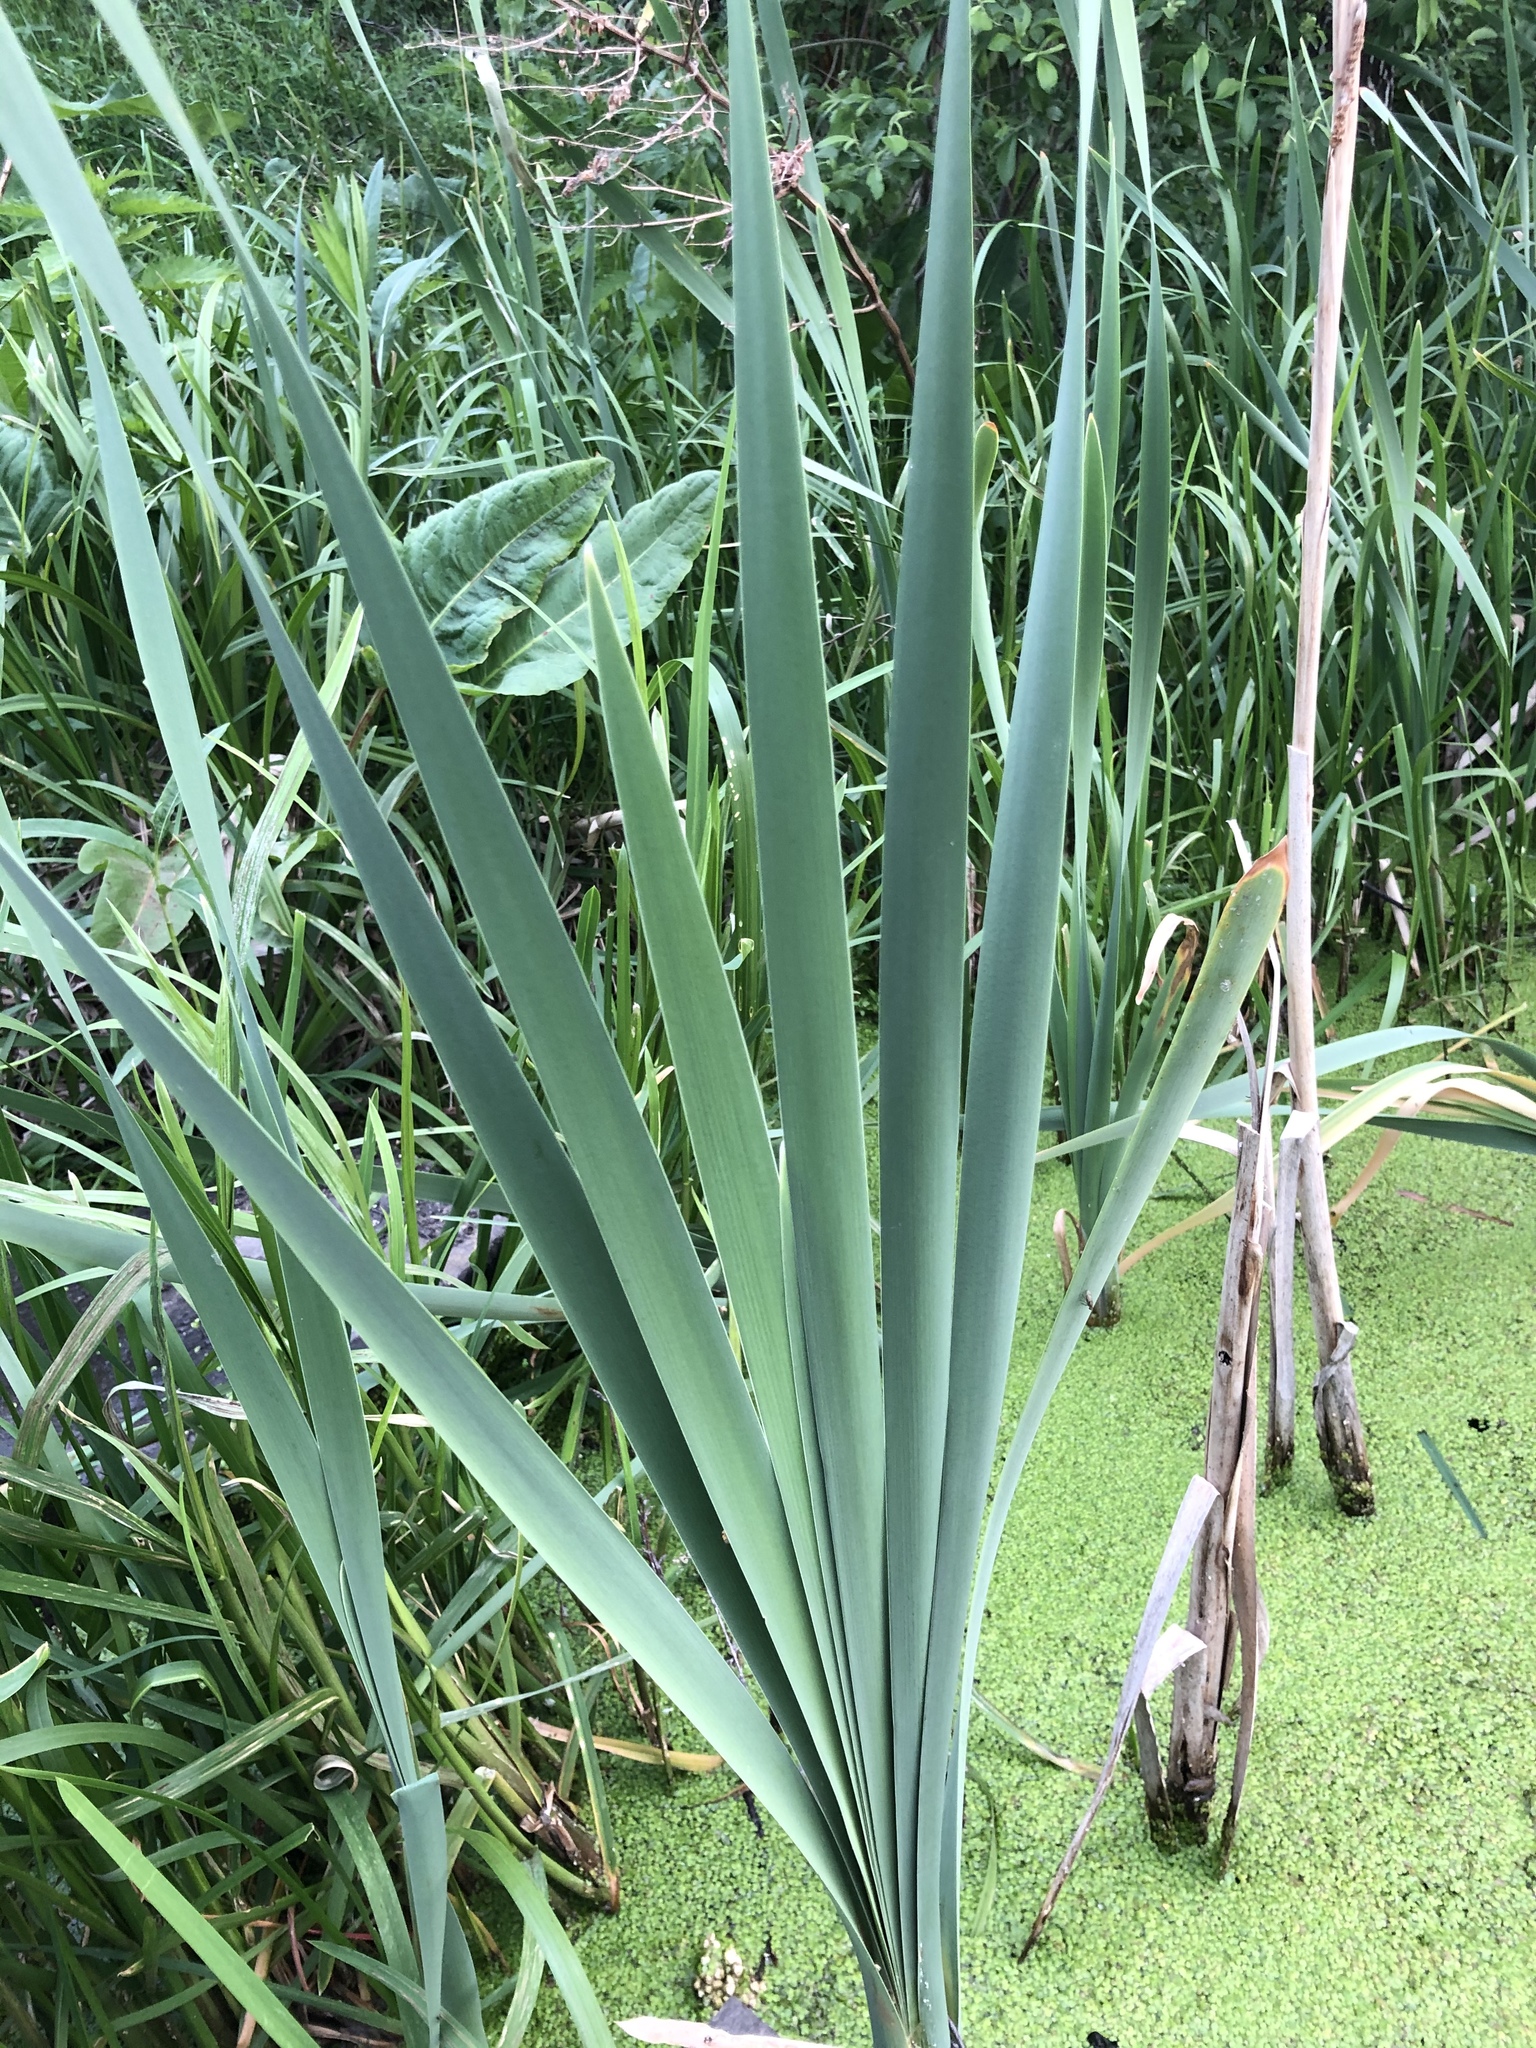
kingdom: Plantae
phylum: Tracheophyta
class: Liliopsida
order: Poales
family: Typhaceae
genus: Typha
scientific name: Typha latifolia
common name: Broadleaf cattail
